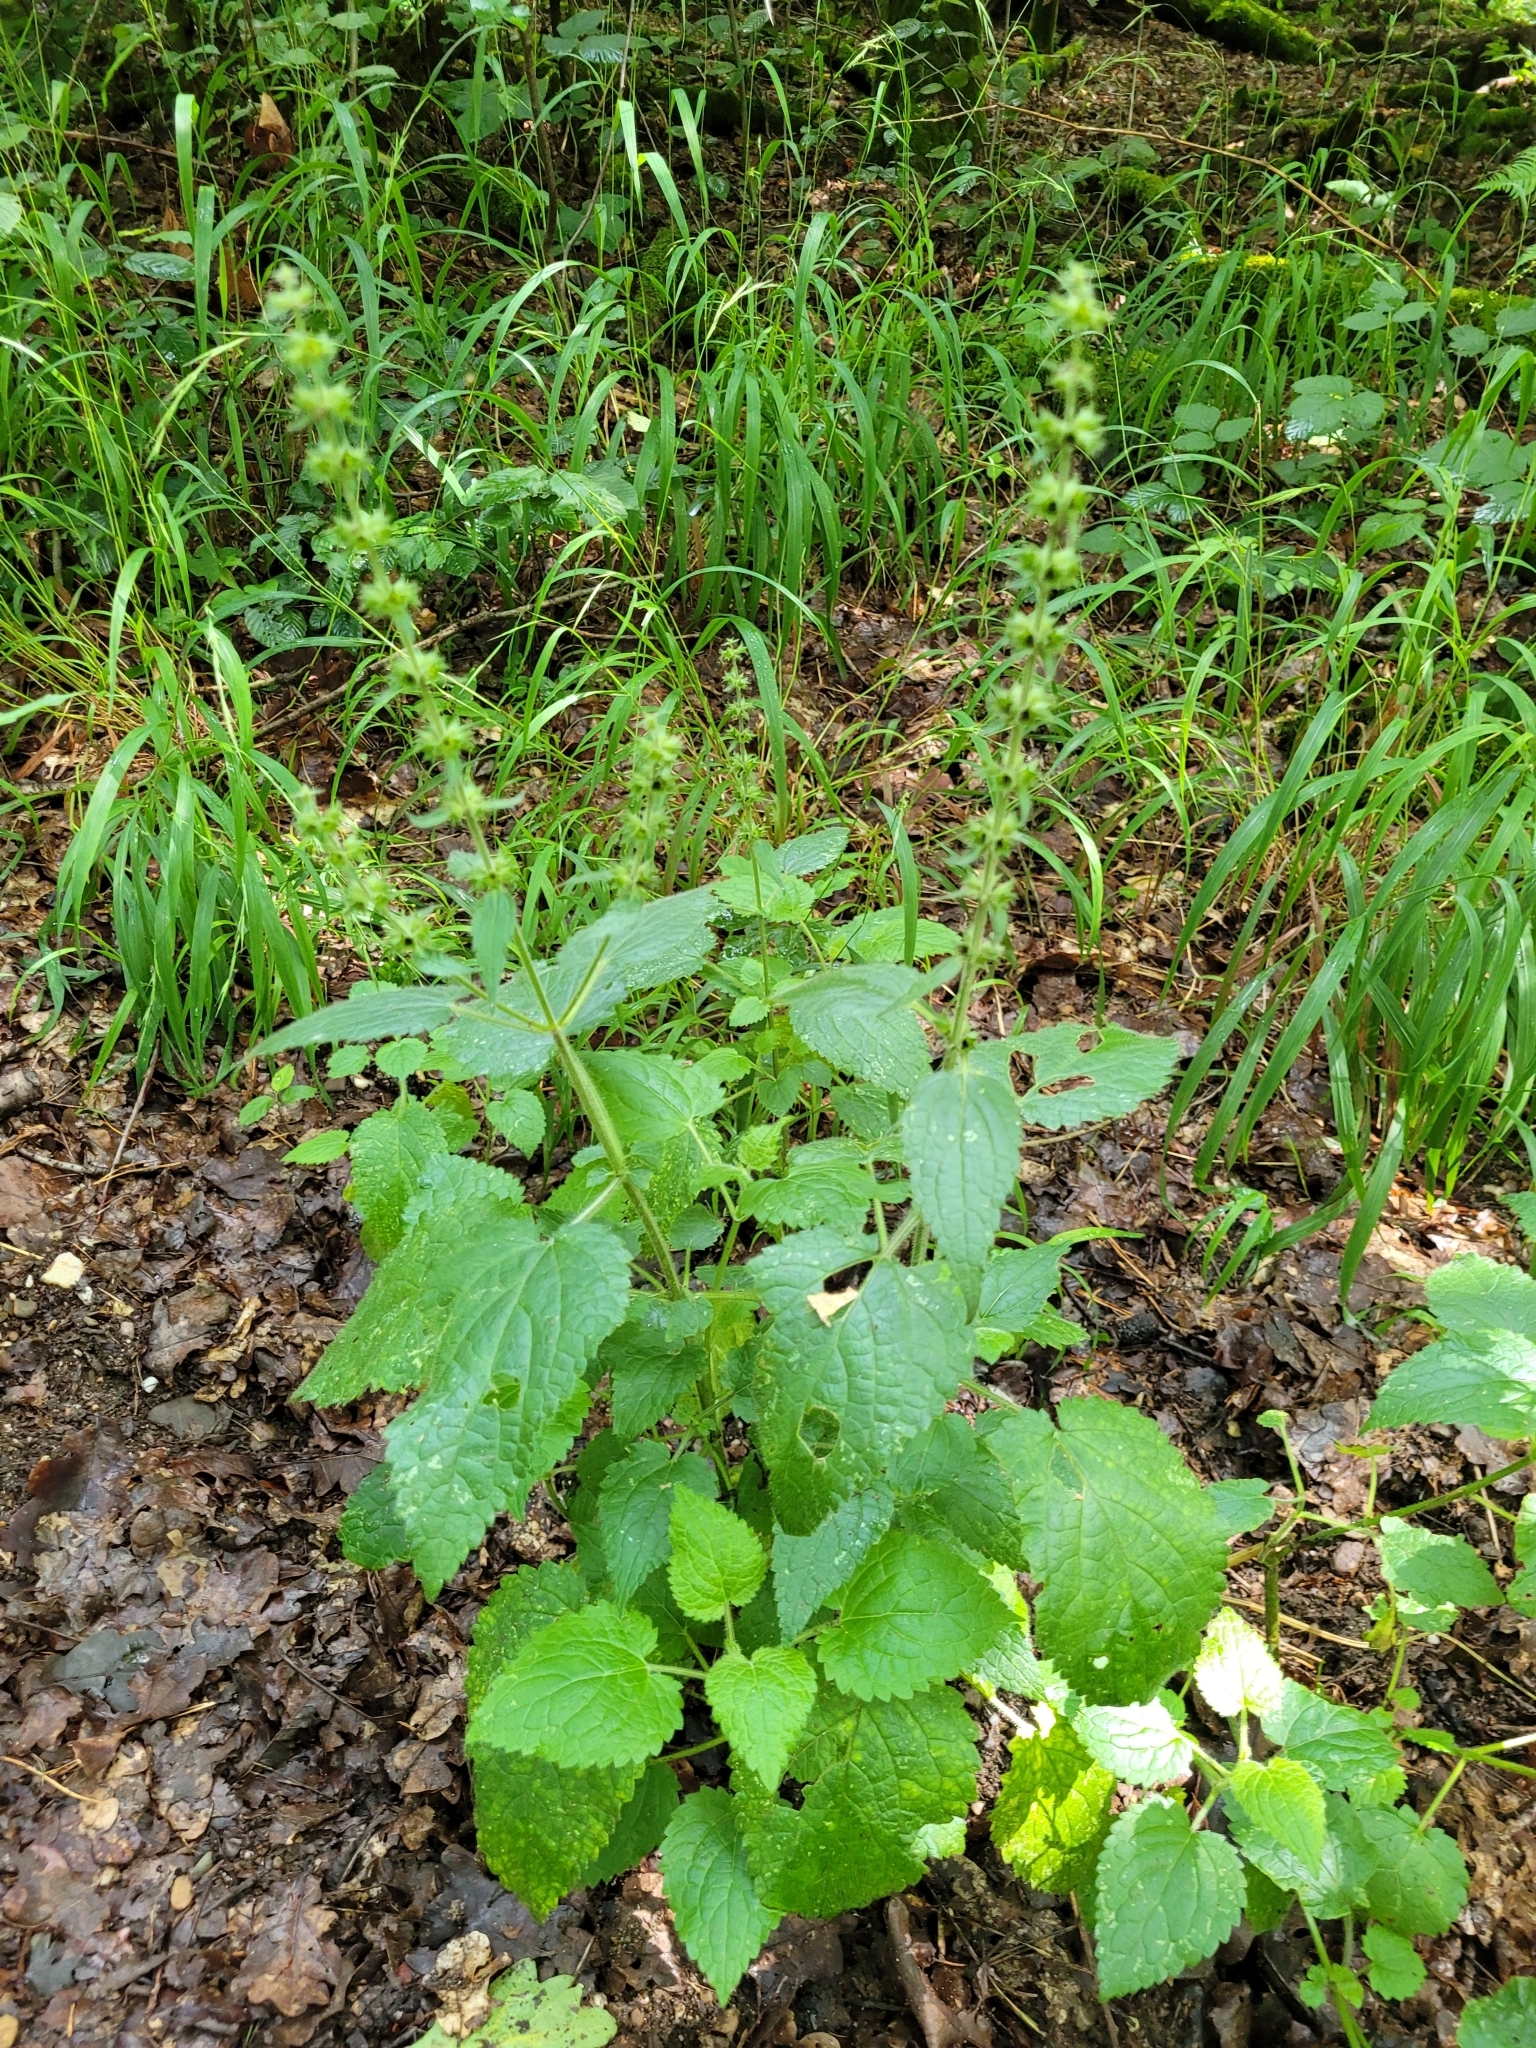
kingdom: Plantae
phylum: Tracheophyta
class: Magnoliopsida
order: Lamiales
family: Lamiaceae
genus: Stachys
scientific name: Stachys sylvatica
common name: Hedge woundwort
